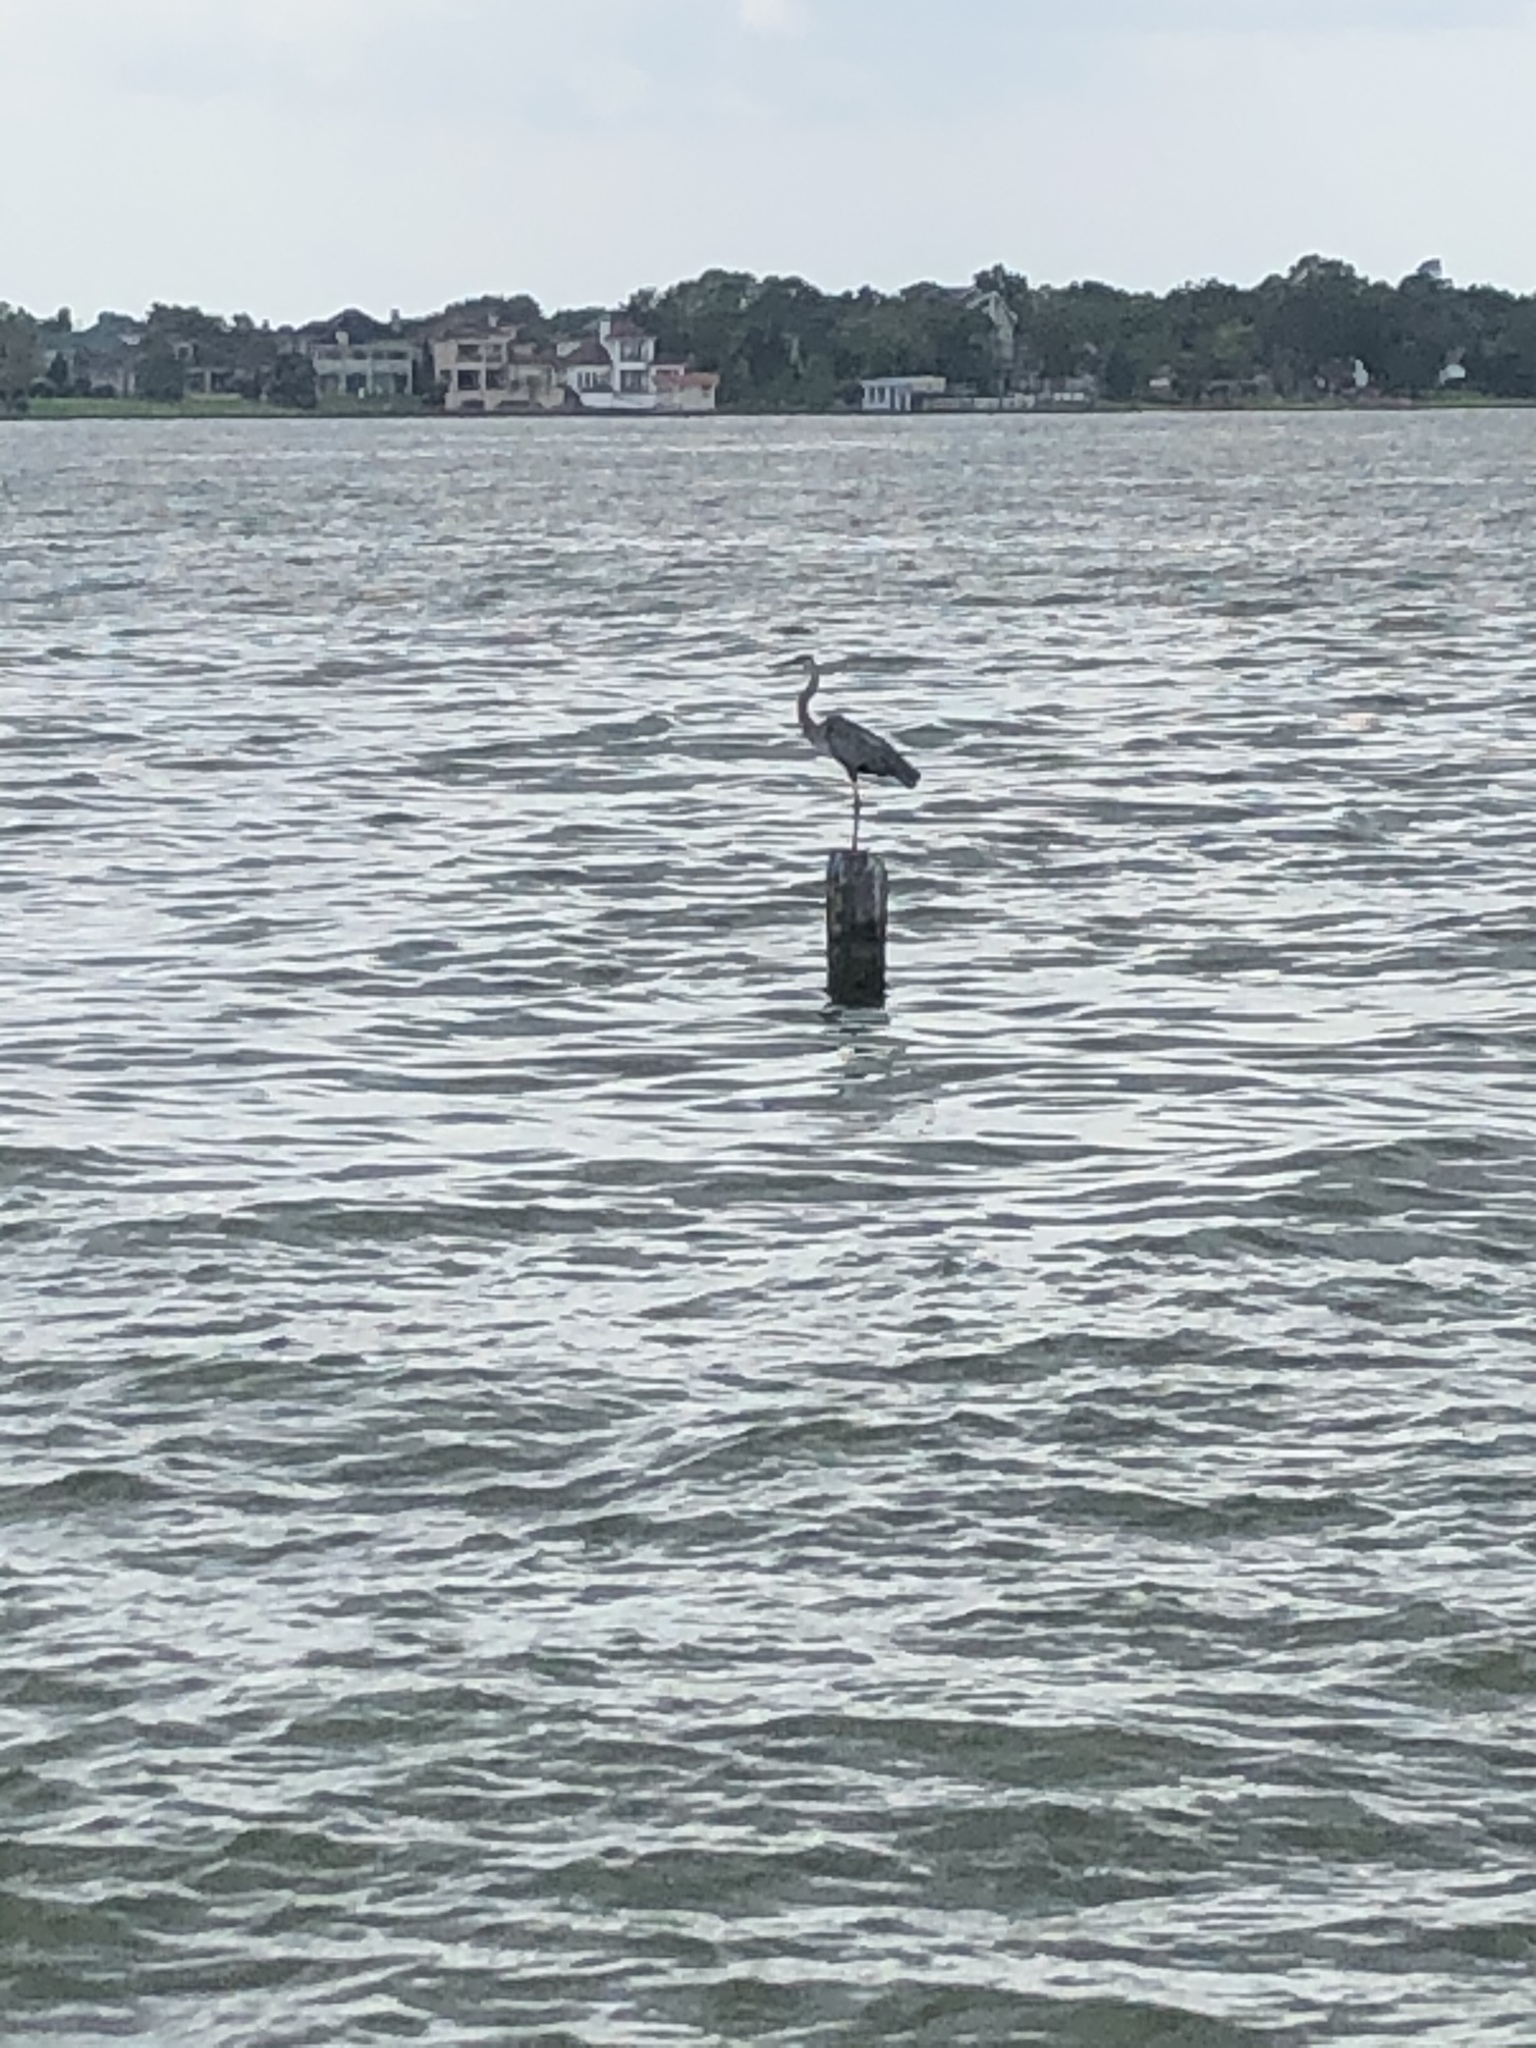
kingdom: Animalia
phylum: Chordata
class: Aves
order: Pelecaniformes
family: Ardeidae
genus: Ardea
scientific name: Ardea herodias
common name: Great blue heron
